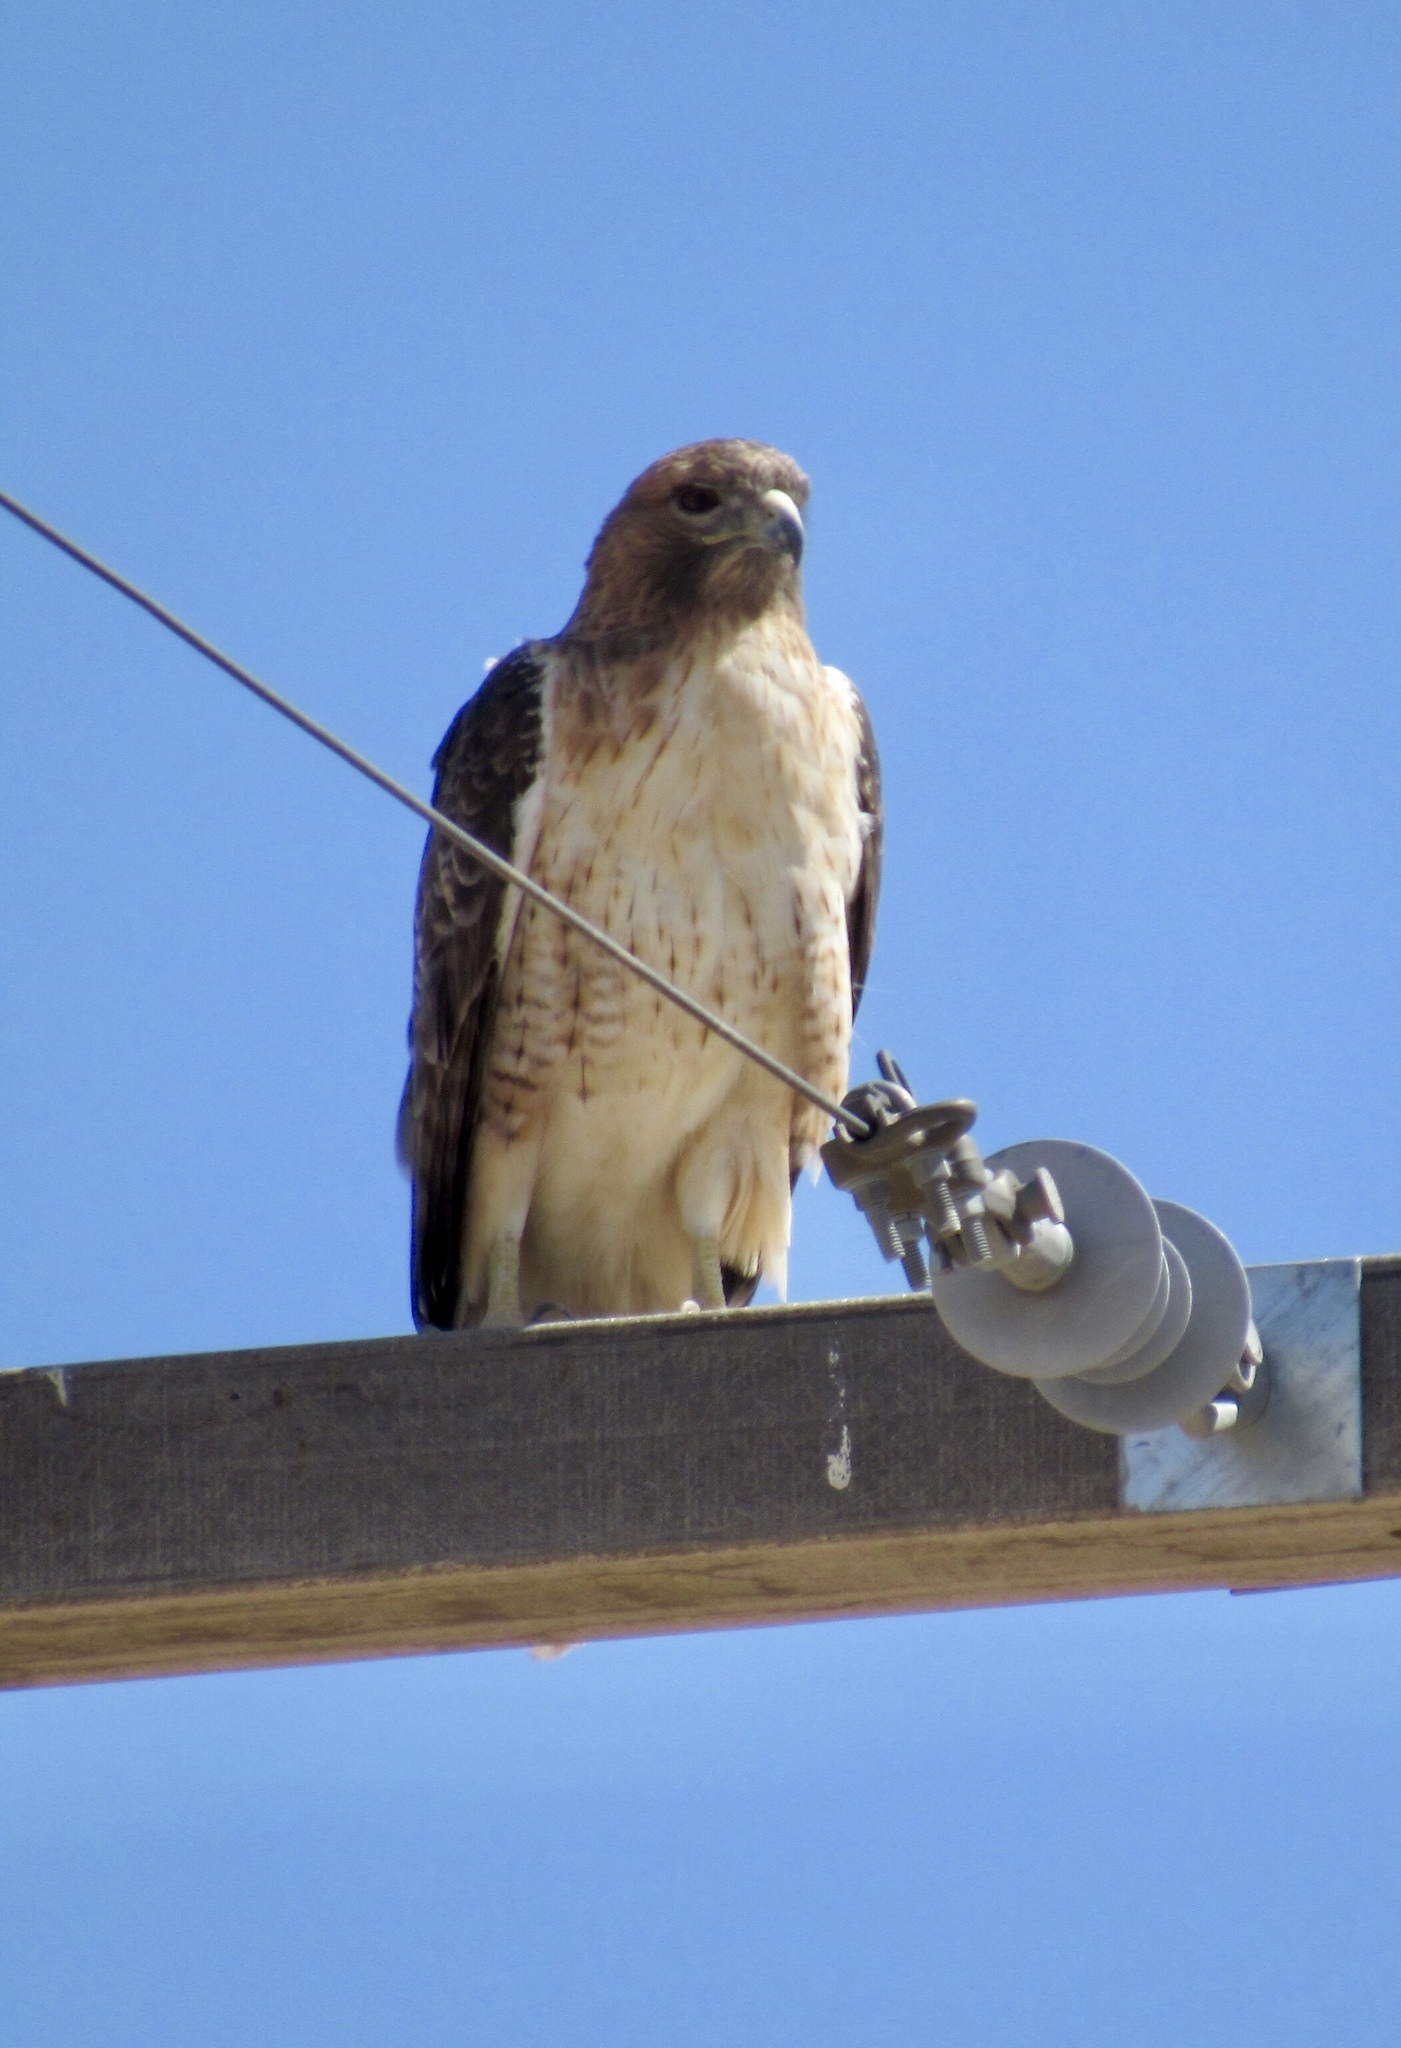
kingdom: Animalia
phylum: Chordata
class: Aves
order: Accipitriformes
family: Accipitridae
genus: Buteo
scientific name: Buteo jamaicensis
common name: Red-tailed hawk
